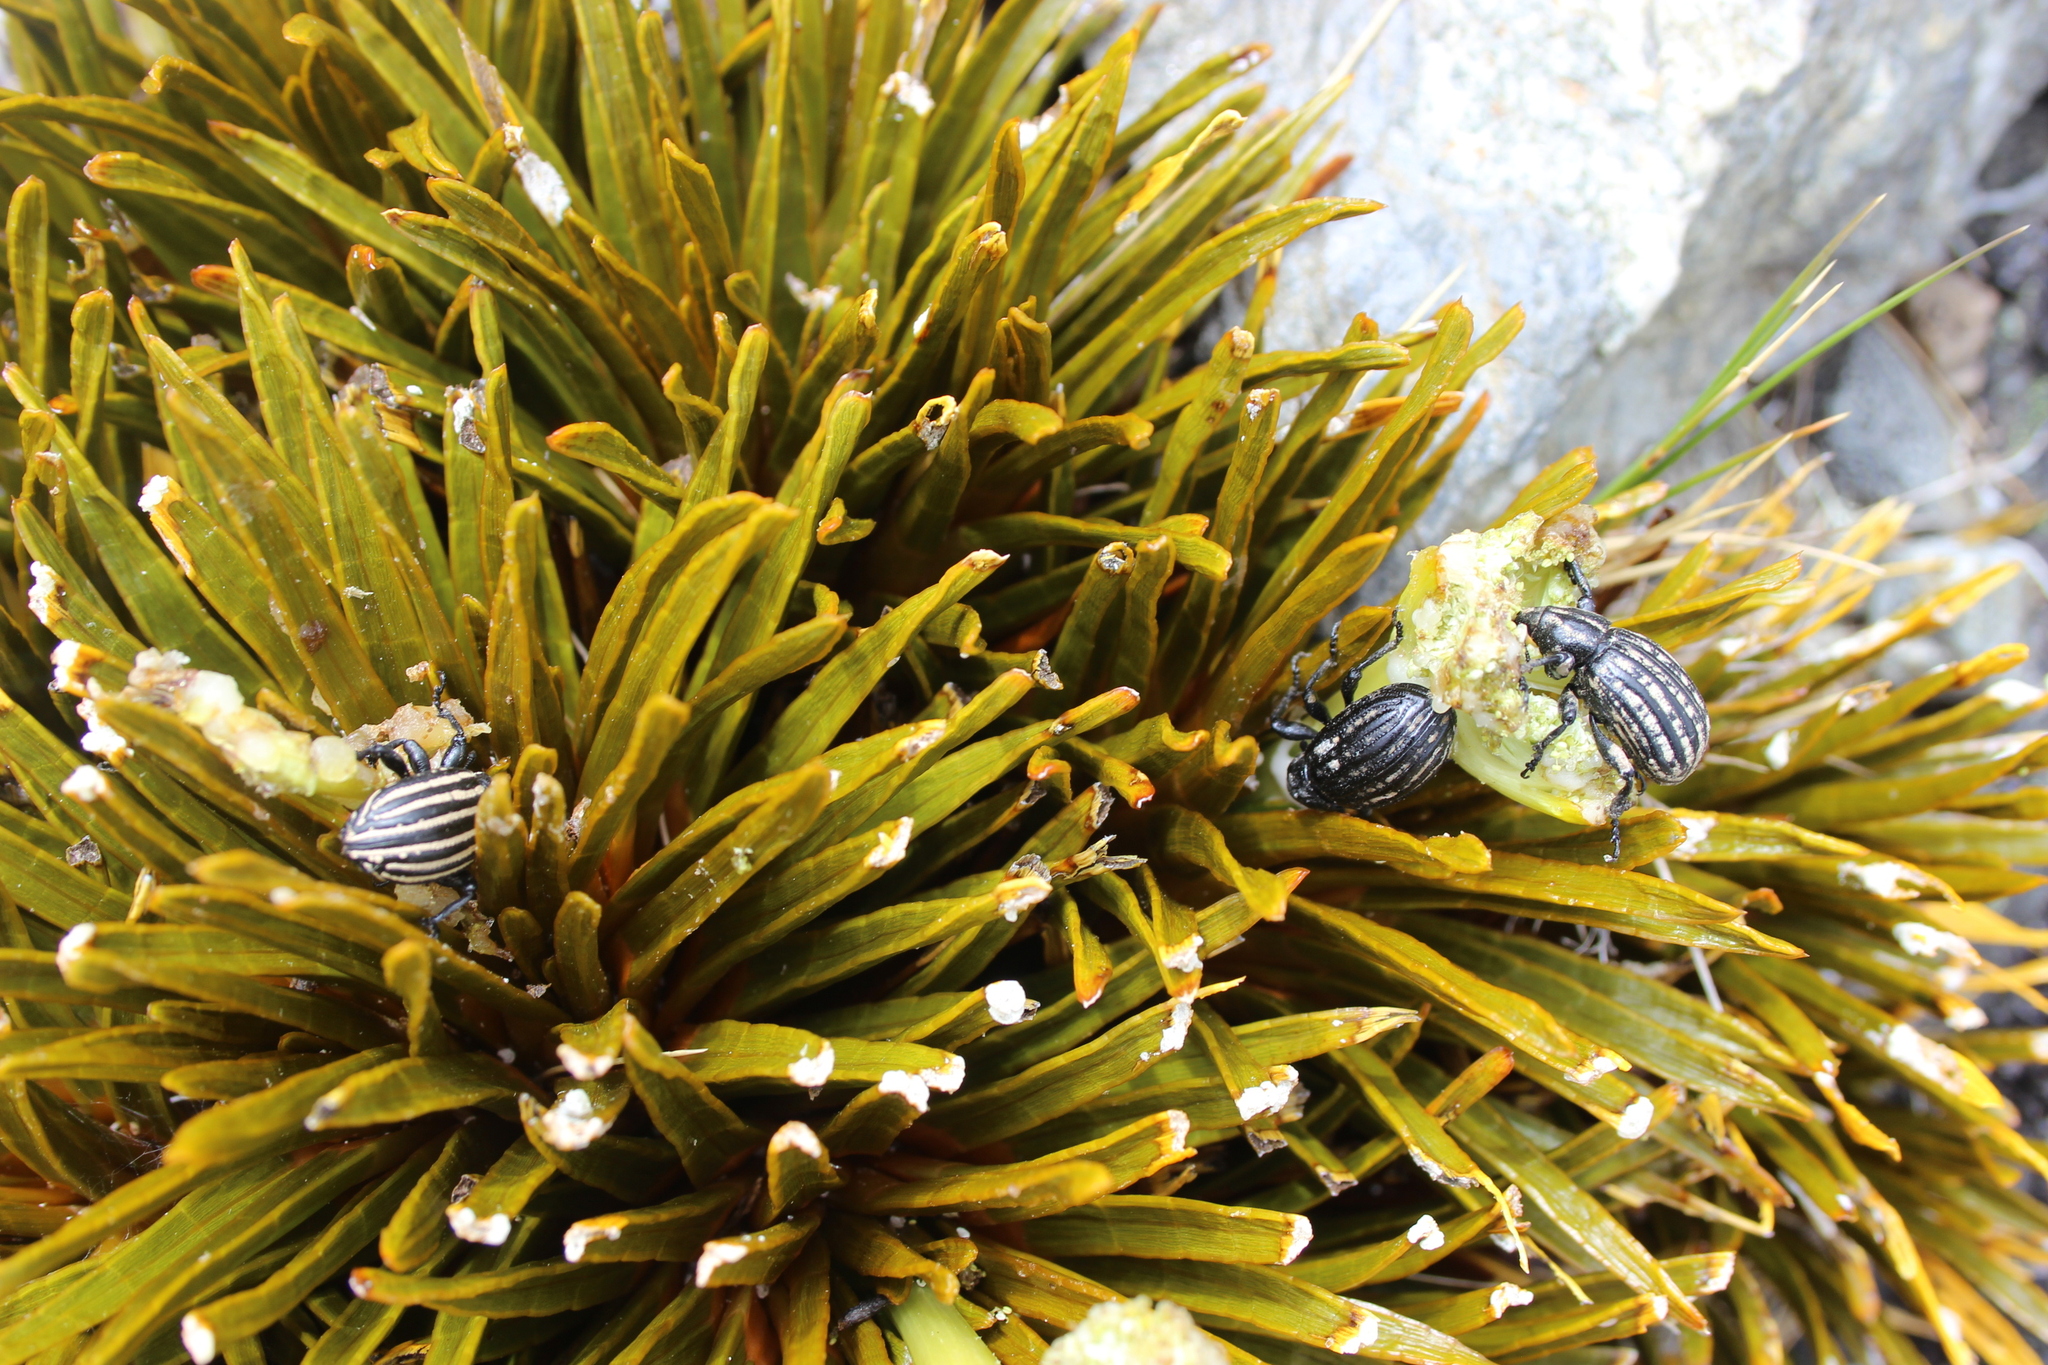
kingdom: Animalia
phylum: Arthropoda
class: Insecta
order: Coleoptera
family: Curculionidae
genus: Lyperobius
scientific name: Lyperobius hudsoni
